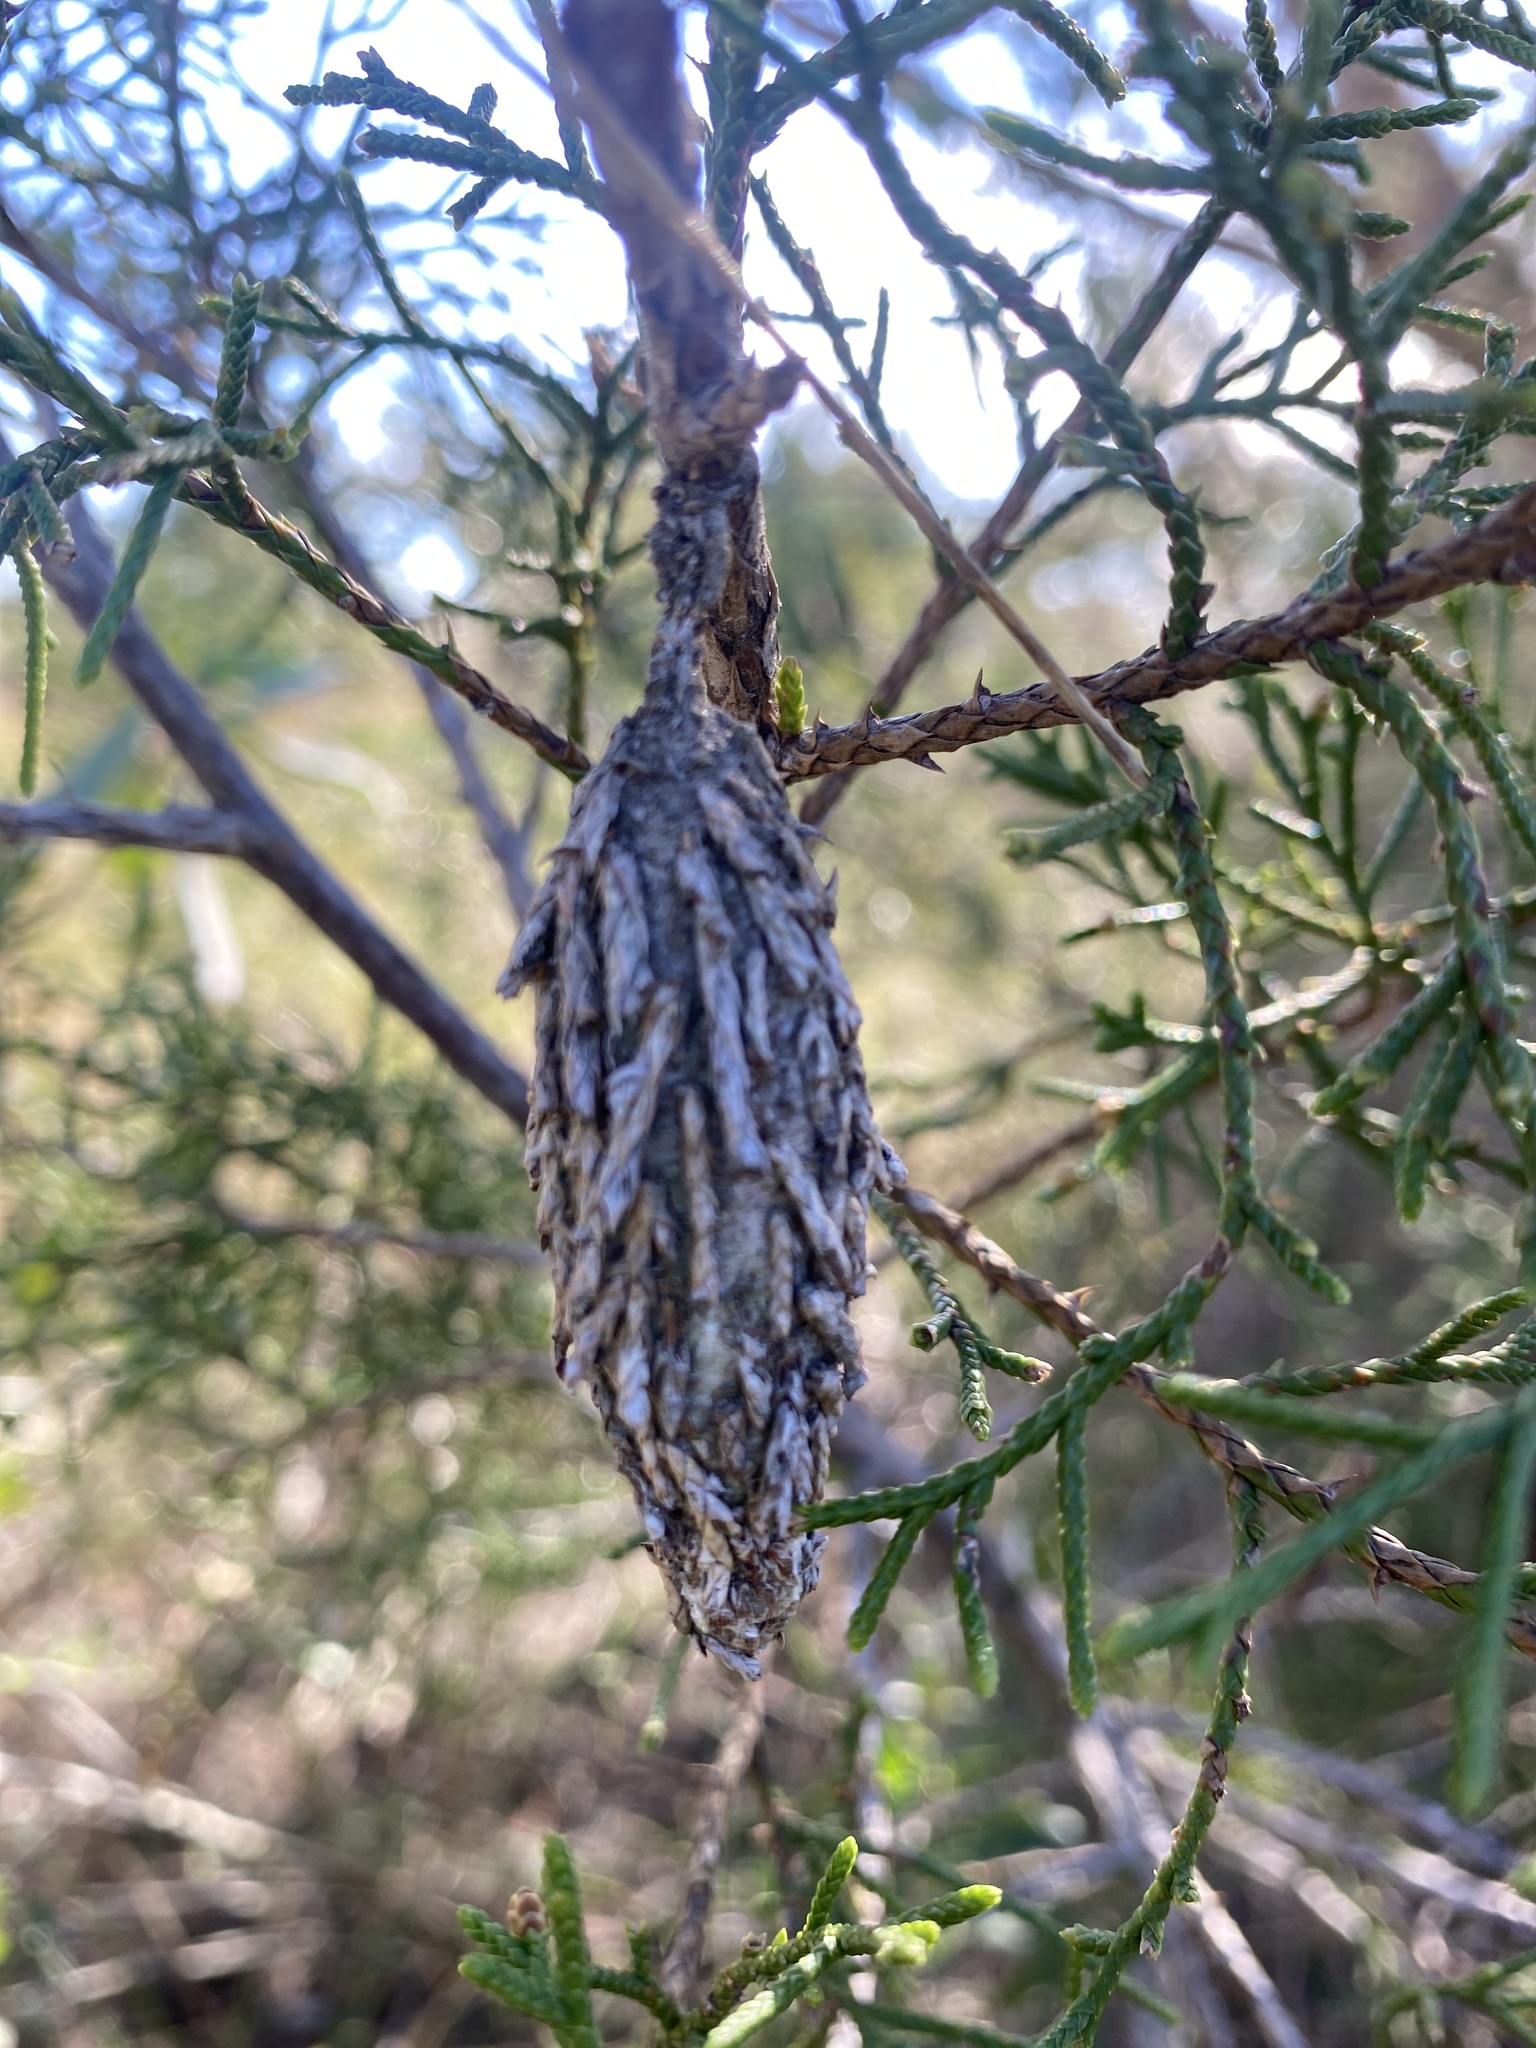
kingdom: Animalia
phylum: Arthropoda
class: Insecta
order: Lepidoptera
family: Psychidae
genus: Thyridopteryx
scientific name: Thyridopteryx ephemeraeformis
